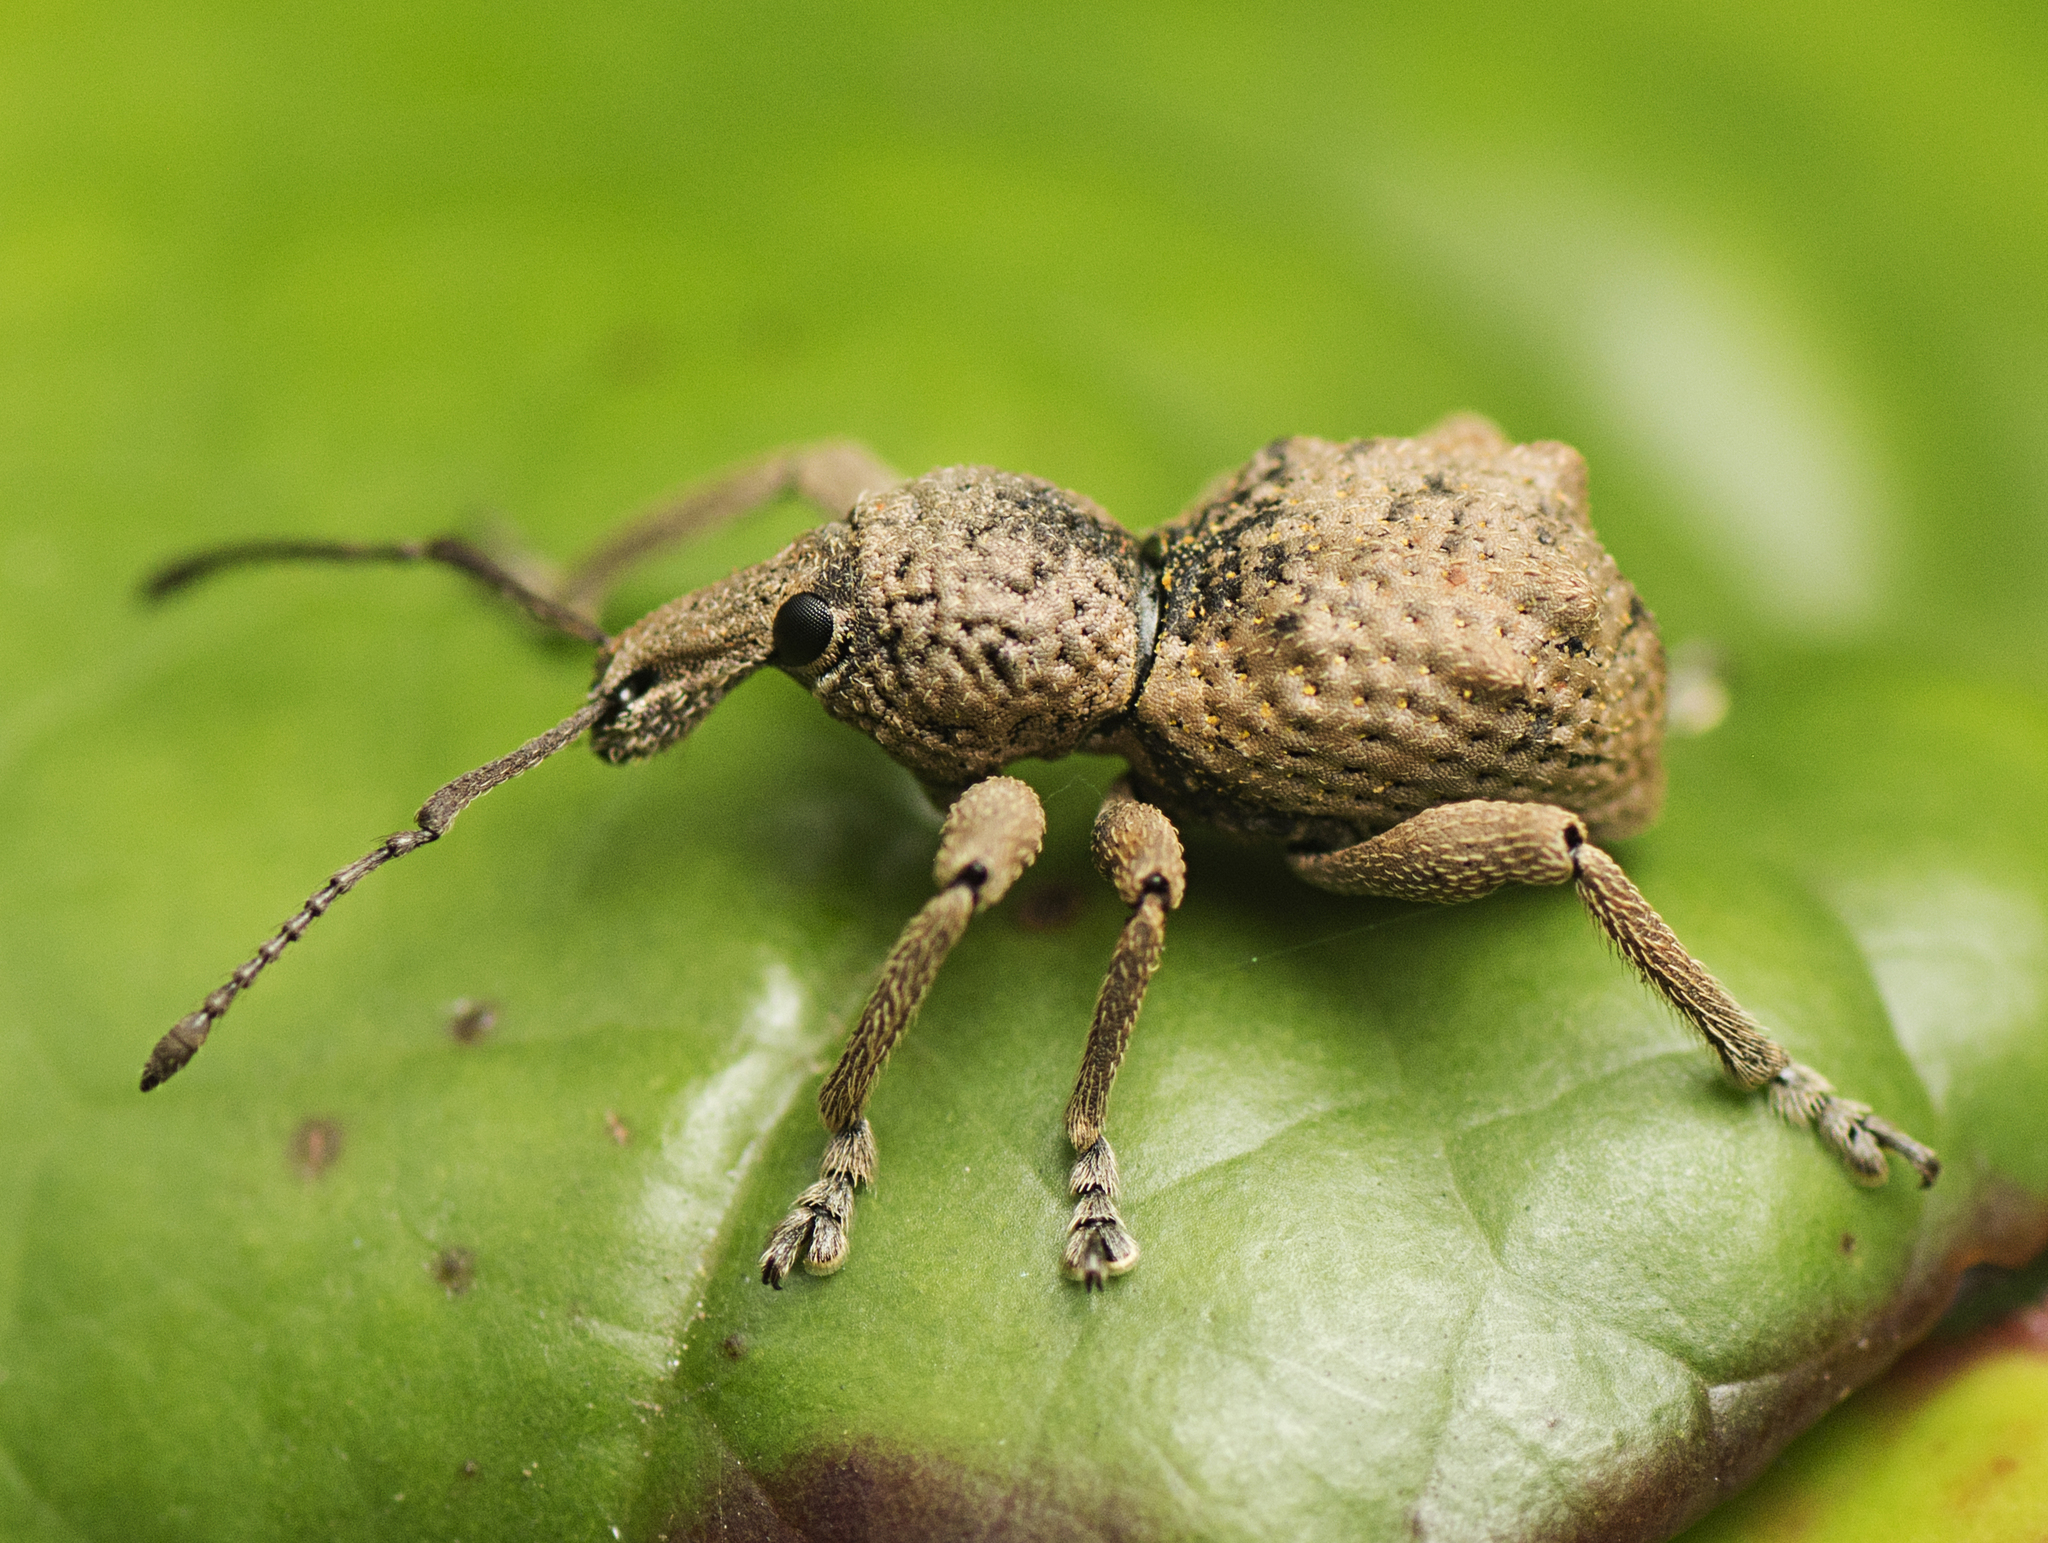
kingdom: Animalia
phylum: Arthropoda
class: Insecta
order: Coleoptera
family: Curculionidae
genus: Leptopius
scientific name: Leptopius tetraphysodes
